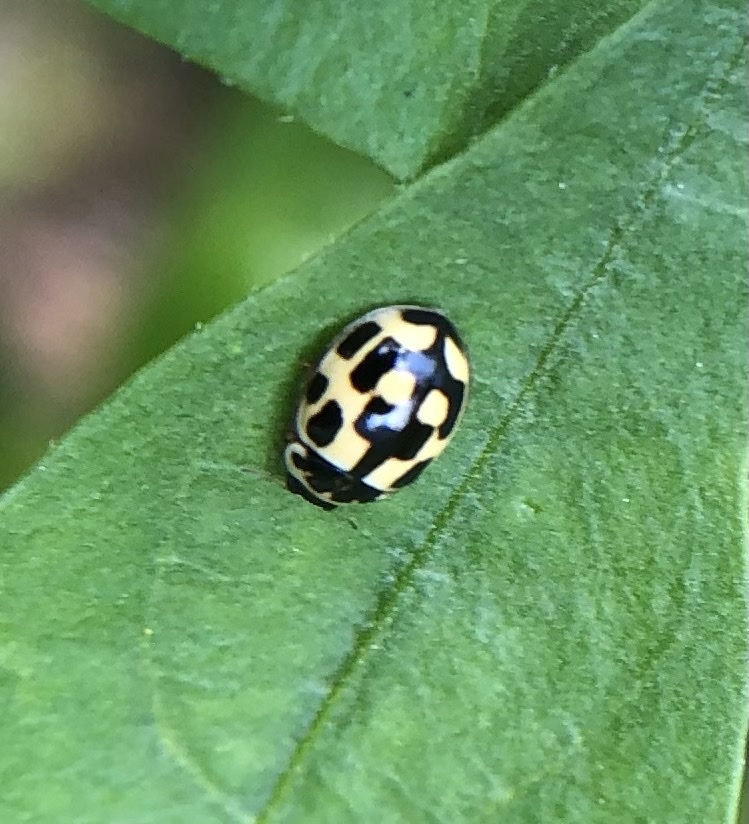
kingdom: Animalia
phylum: Arthropoda
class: Insecta
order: Coleoptera
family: Coccinellidae
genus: Propylaea
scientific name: Propylaea quatuordecimpunctata
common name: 14-spotted ladybird beetle
